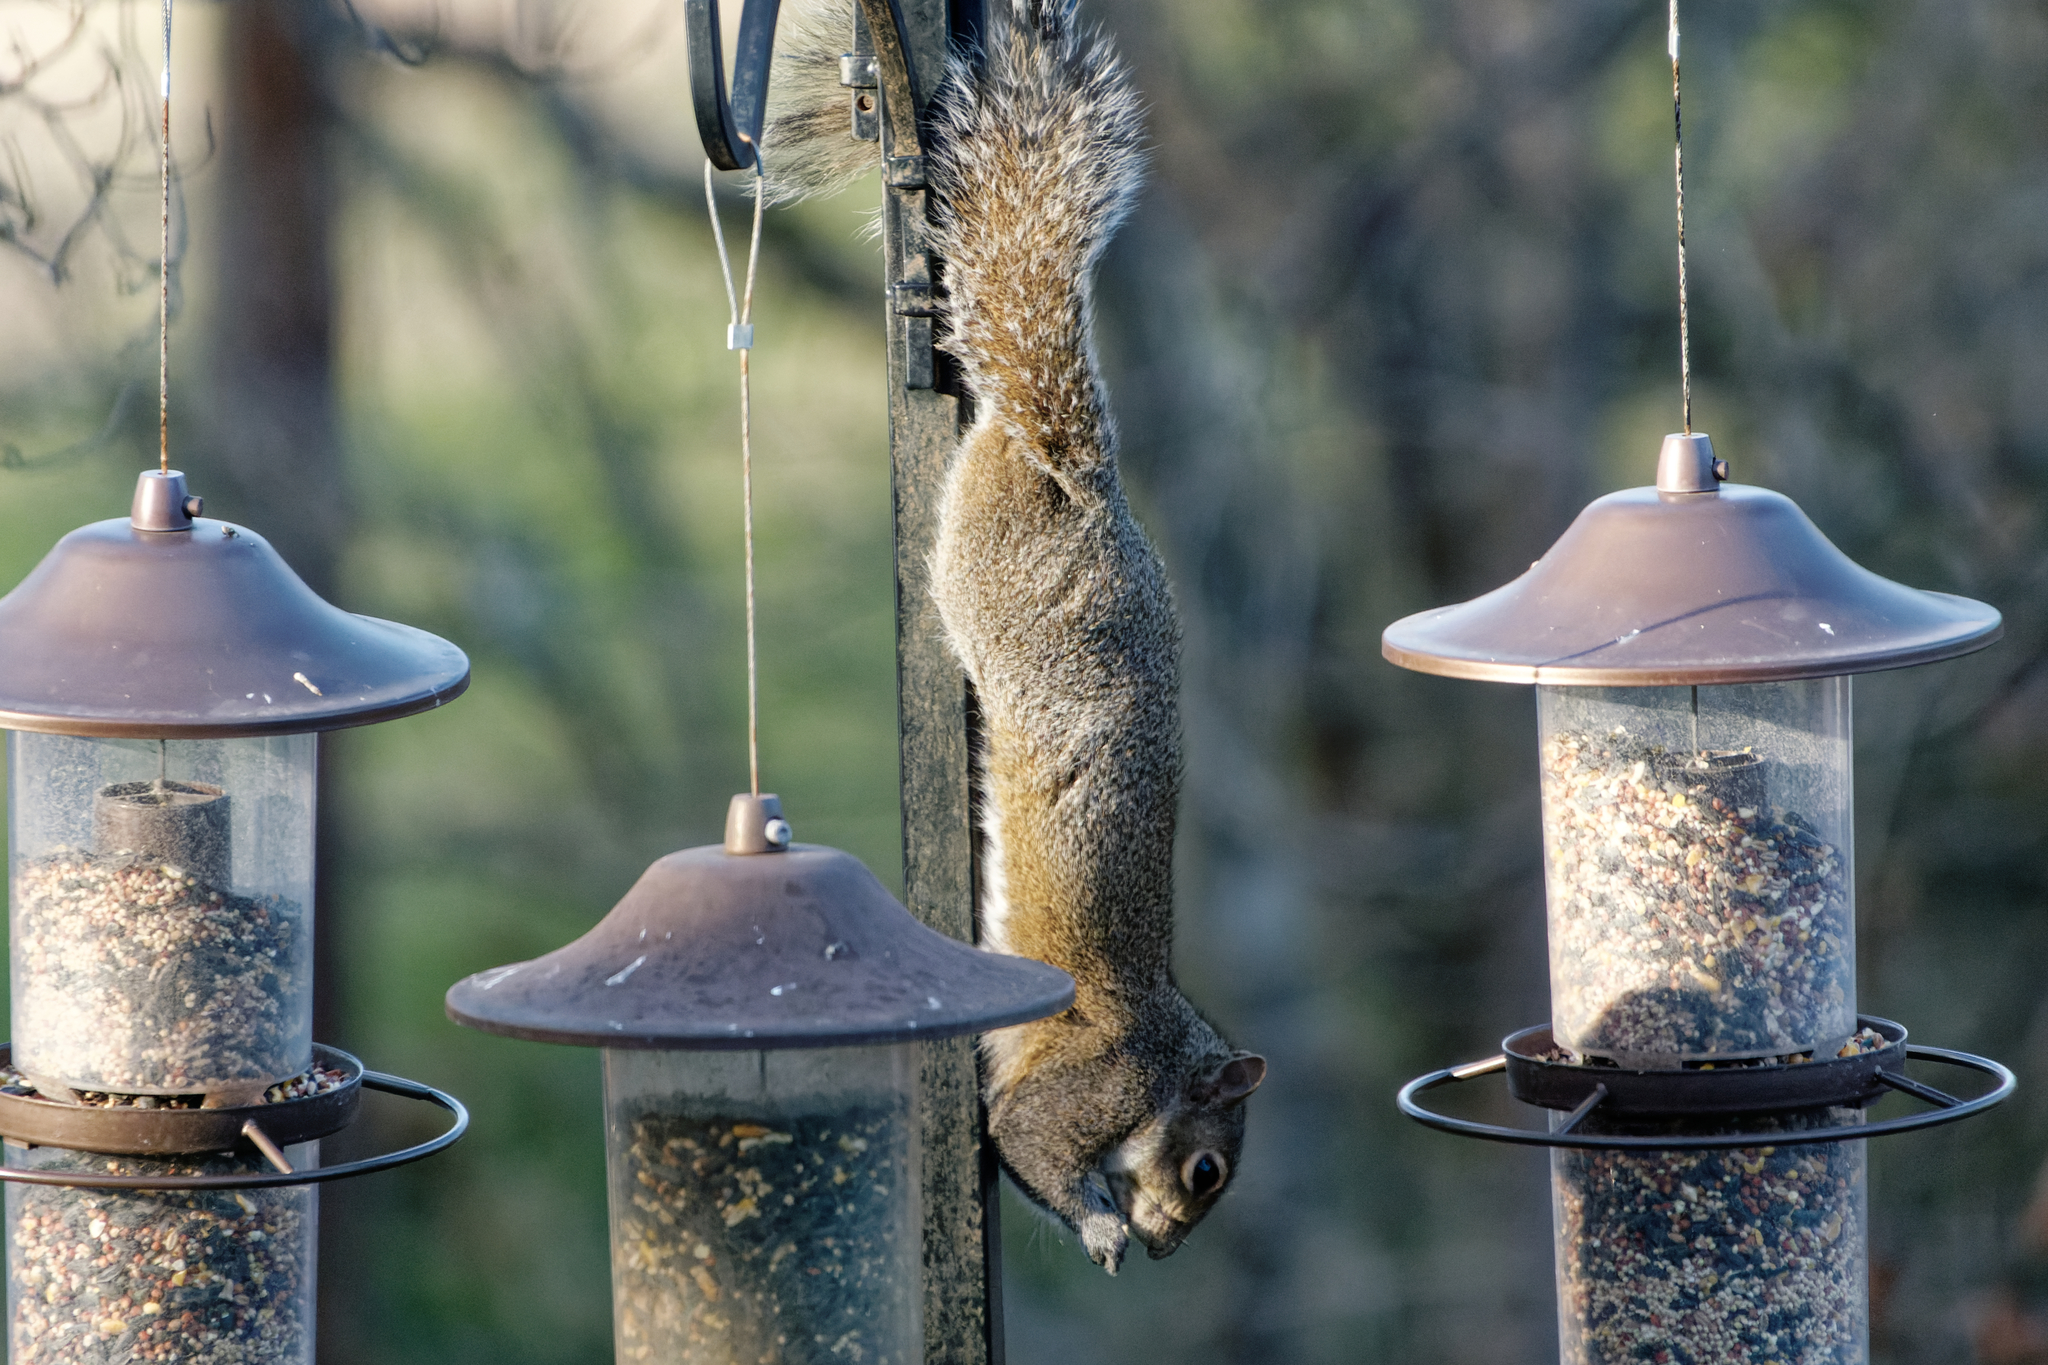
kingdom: Animalia
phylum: Chordata
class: Mammalia
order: Rodentia
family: Sciuridae
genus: Sciurus
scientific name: Sciurus carolinensis
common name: Eastern gray squirrel
